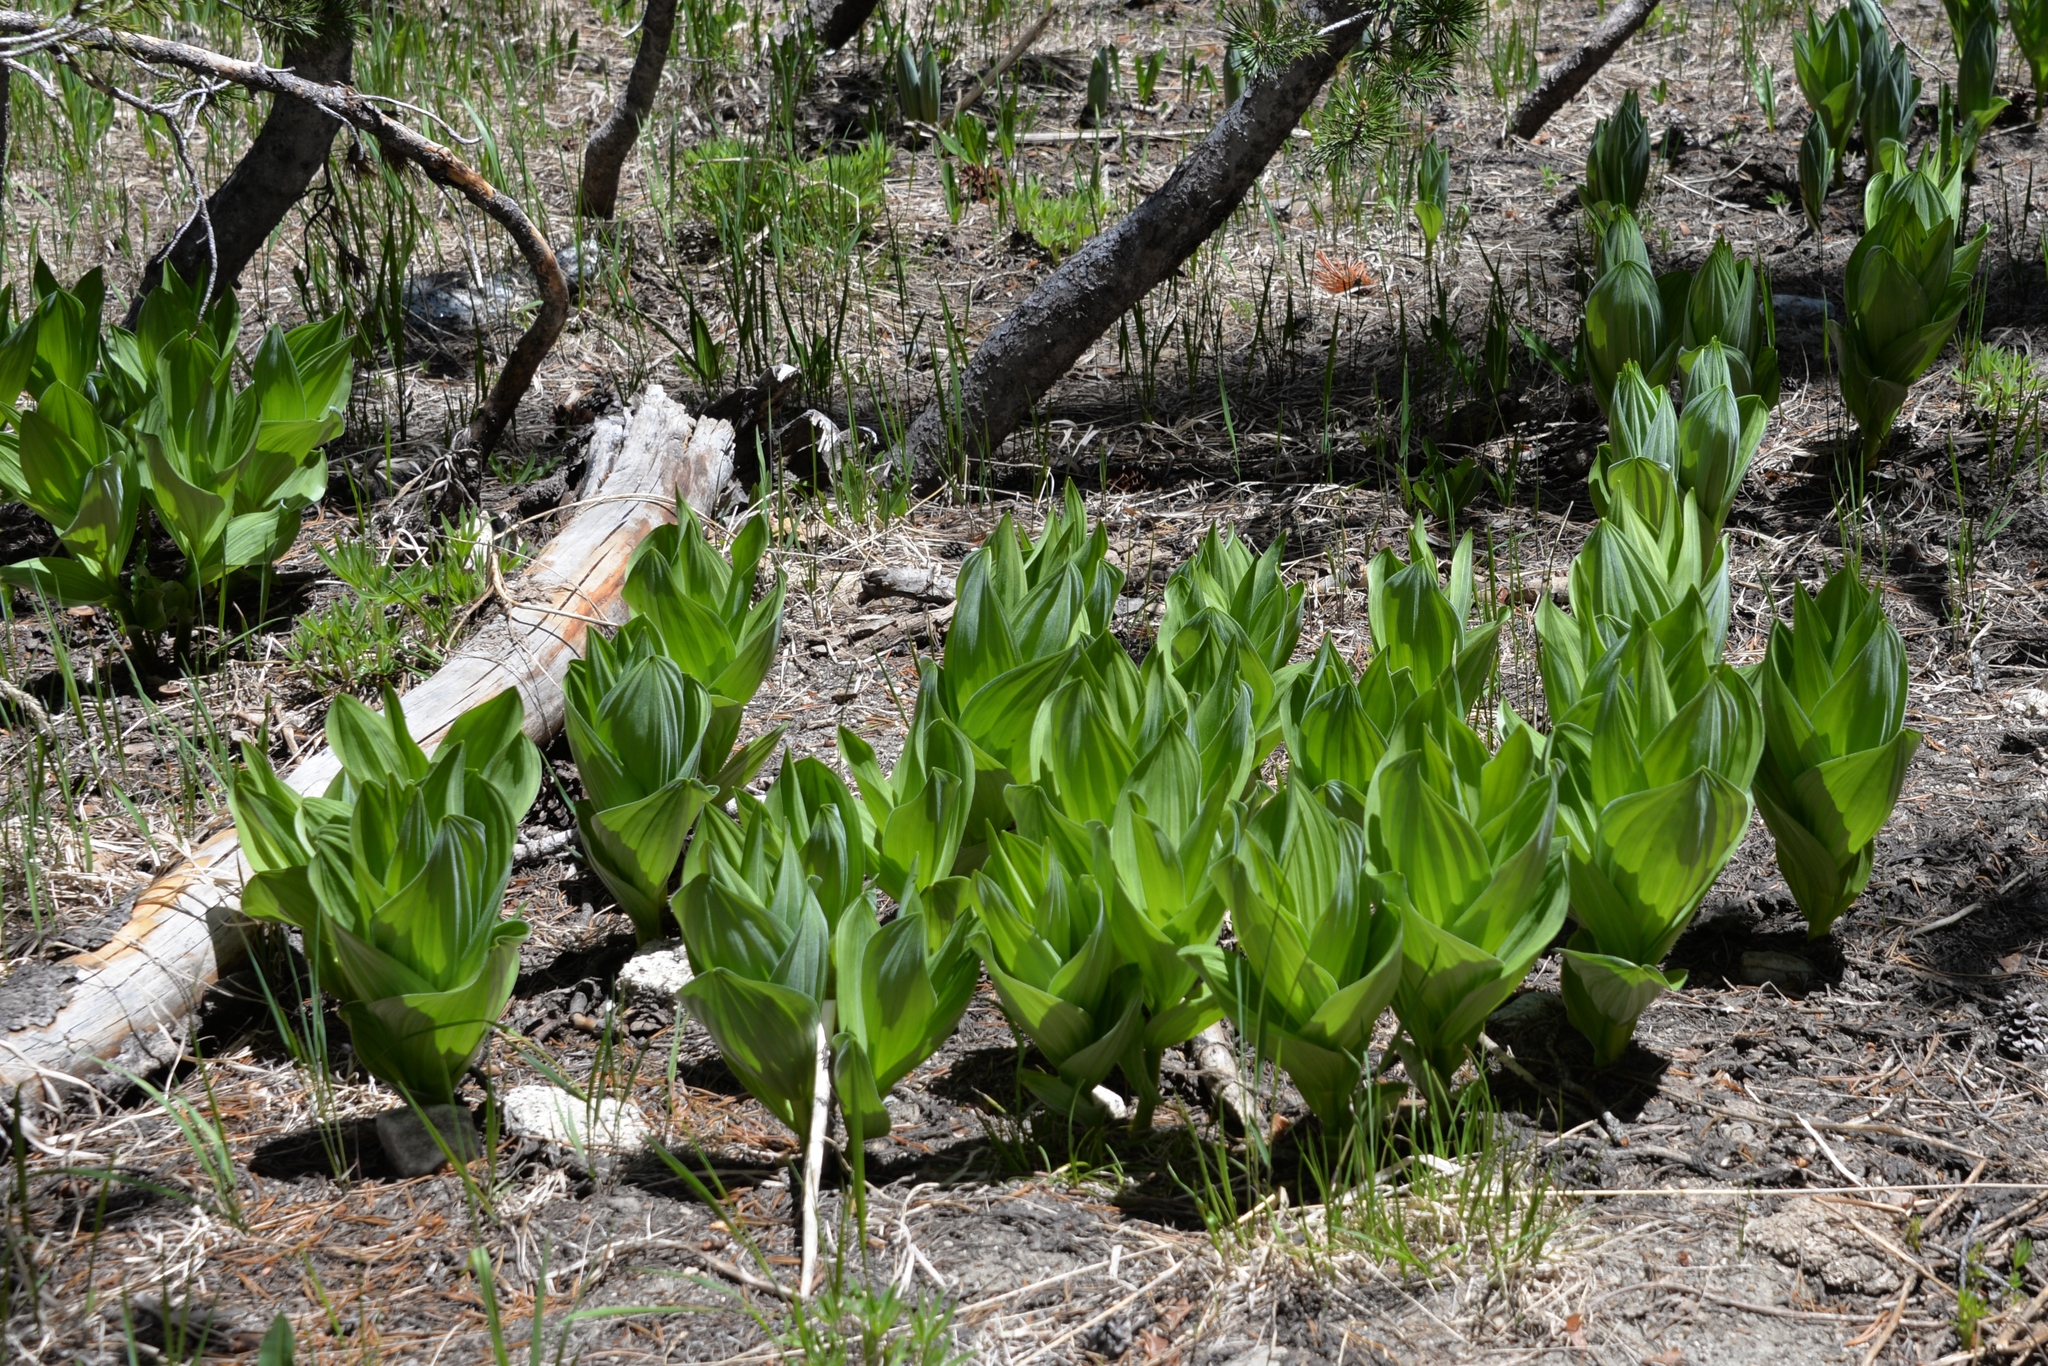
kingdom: Plantae
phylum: Tracheophyta
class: Liliopsida
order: Liliales
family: Melanthiaceae
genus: Veratrum
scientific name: Veratrum californicum
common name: California veratrum
